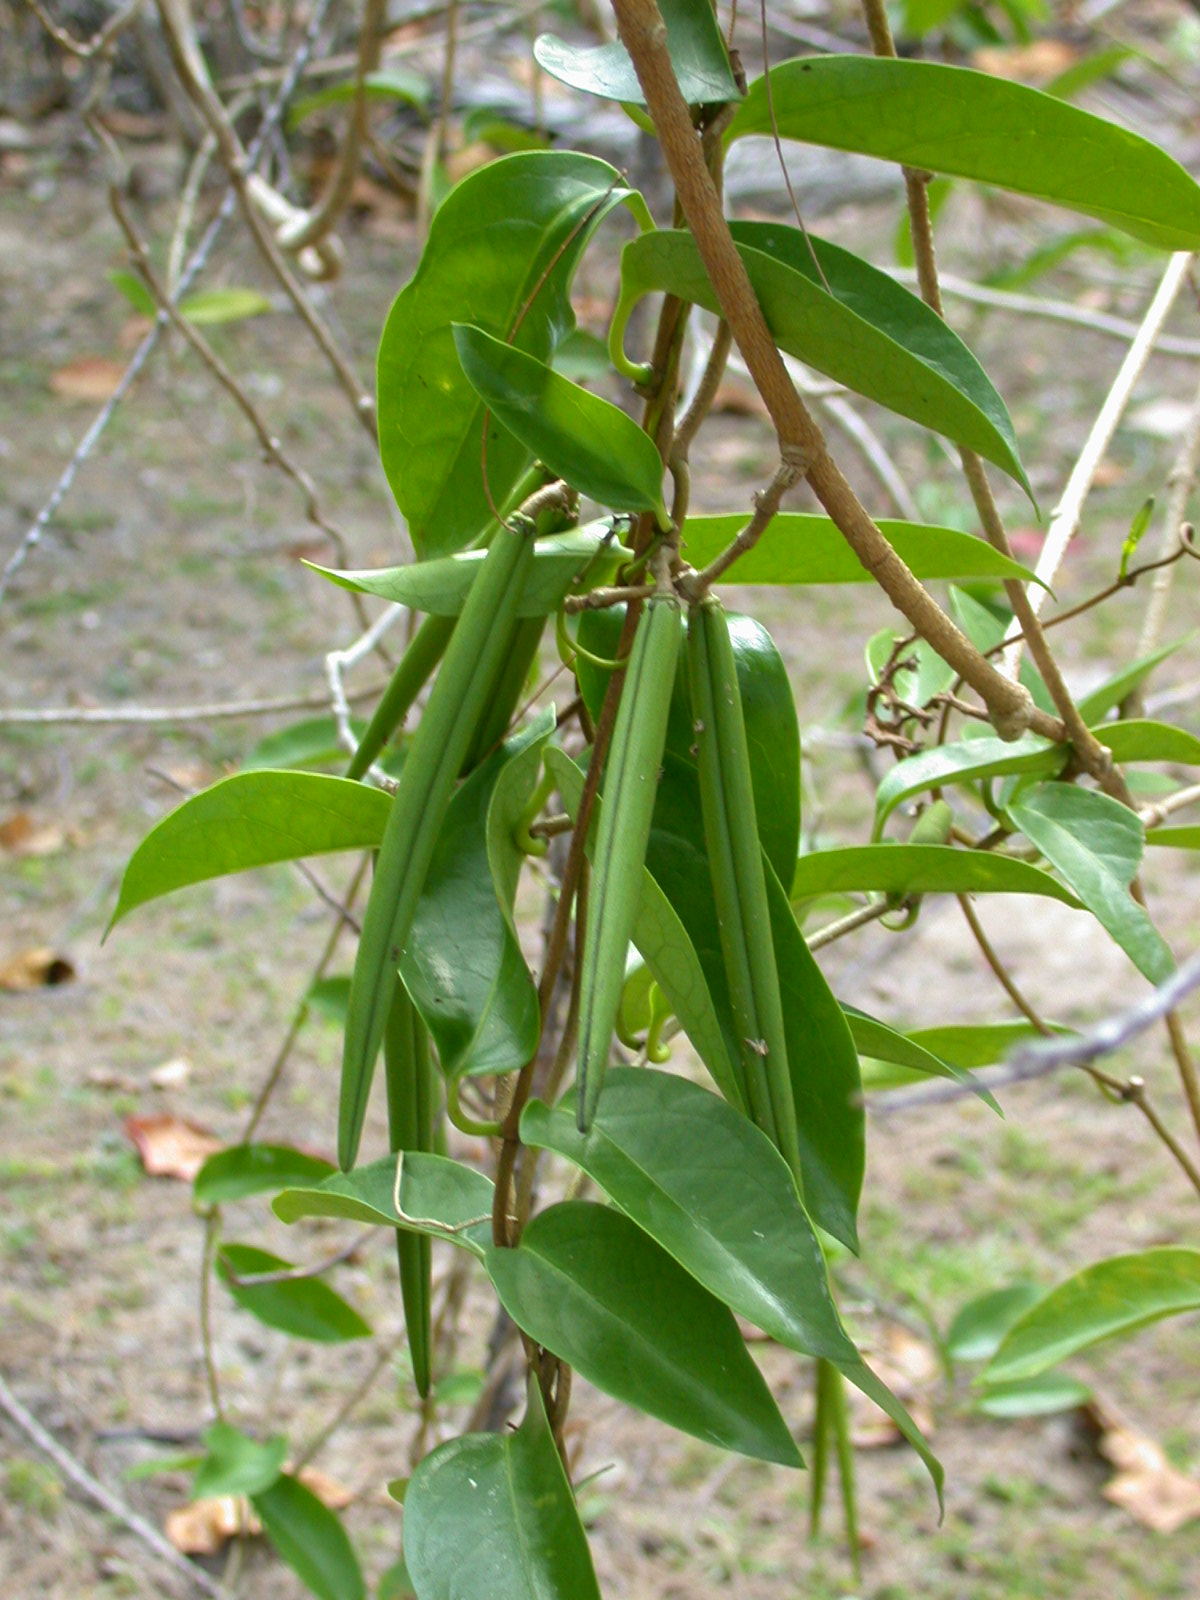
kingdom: Plantae
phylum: Tracheophyta
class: Magnoliopsida
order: Gentianales
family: Apocynaceae
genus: Parsonsia
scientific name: Parsonsia alboflavescens
